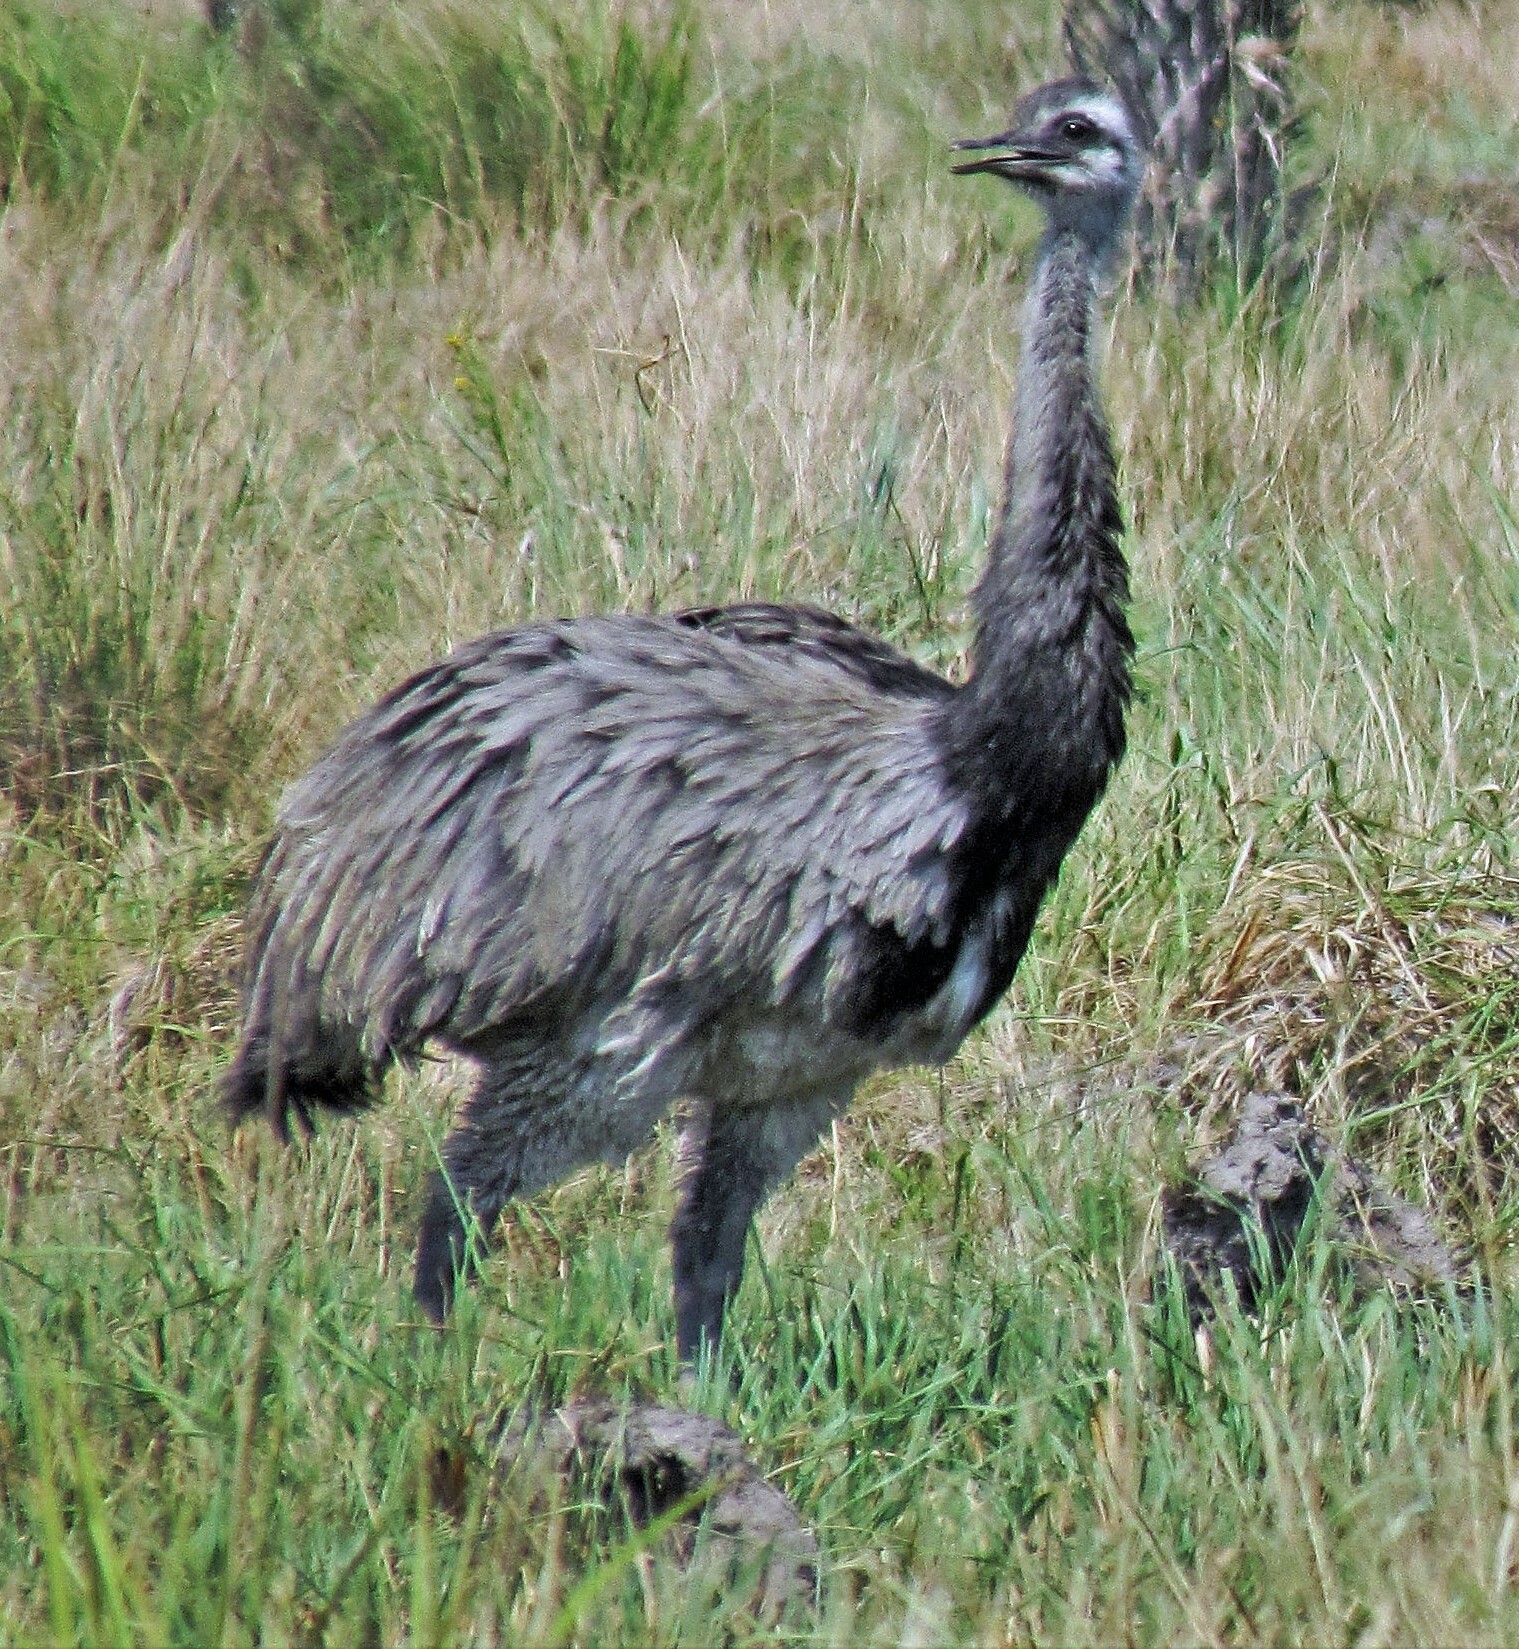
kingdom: Animalia
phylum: Chordata
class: Aves
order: Rheiformes
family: Rheidae
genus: Rhea
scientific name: Rhea americana
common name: Greater rhea
